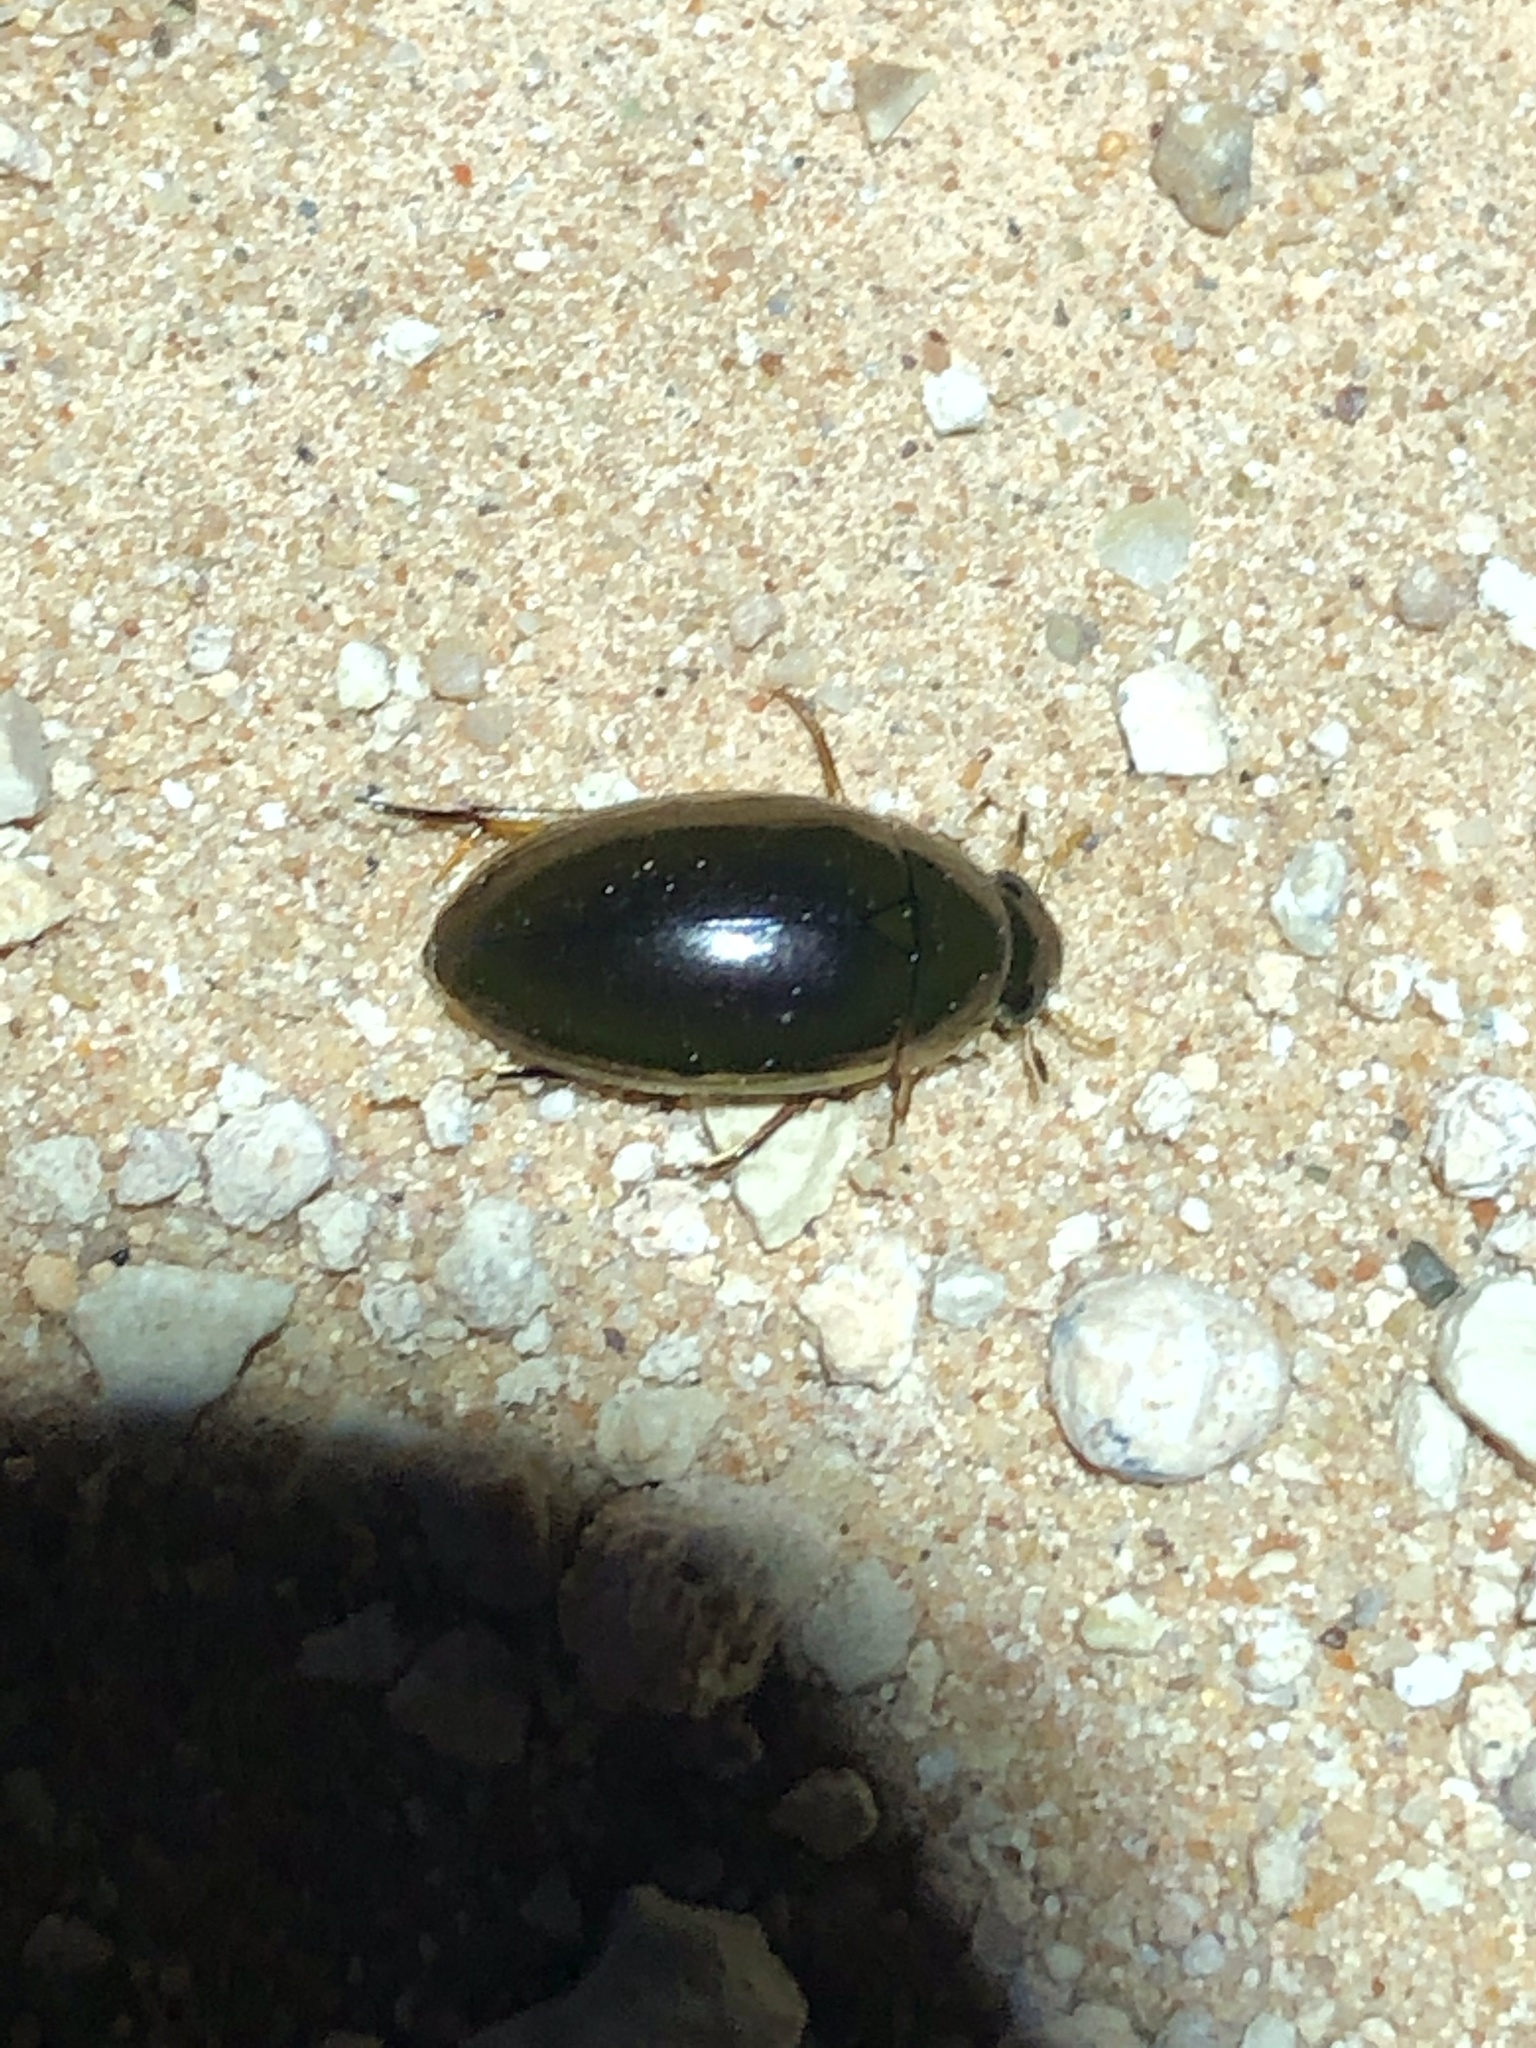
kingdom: Animalia
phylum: Arthropoda
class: Insecta
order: Coleoptera
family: Hydrophilidae
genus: Tropisternus
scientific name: Tropisternus lateralis
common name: Lateral-banded water scavenger beetle
